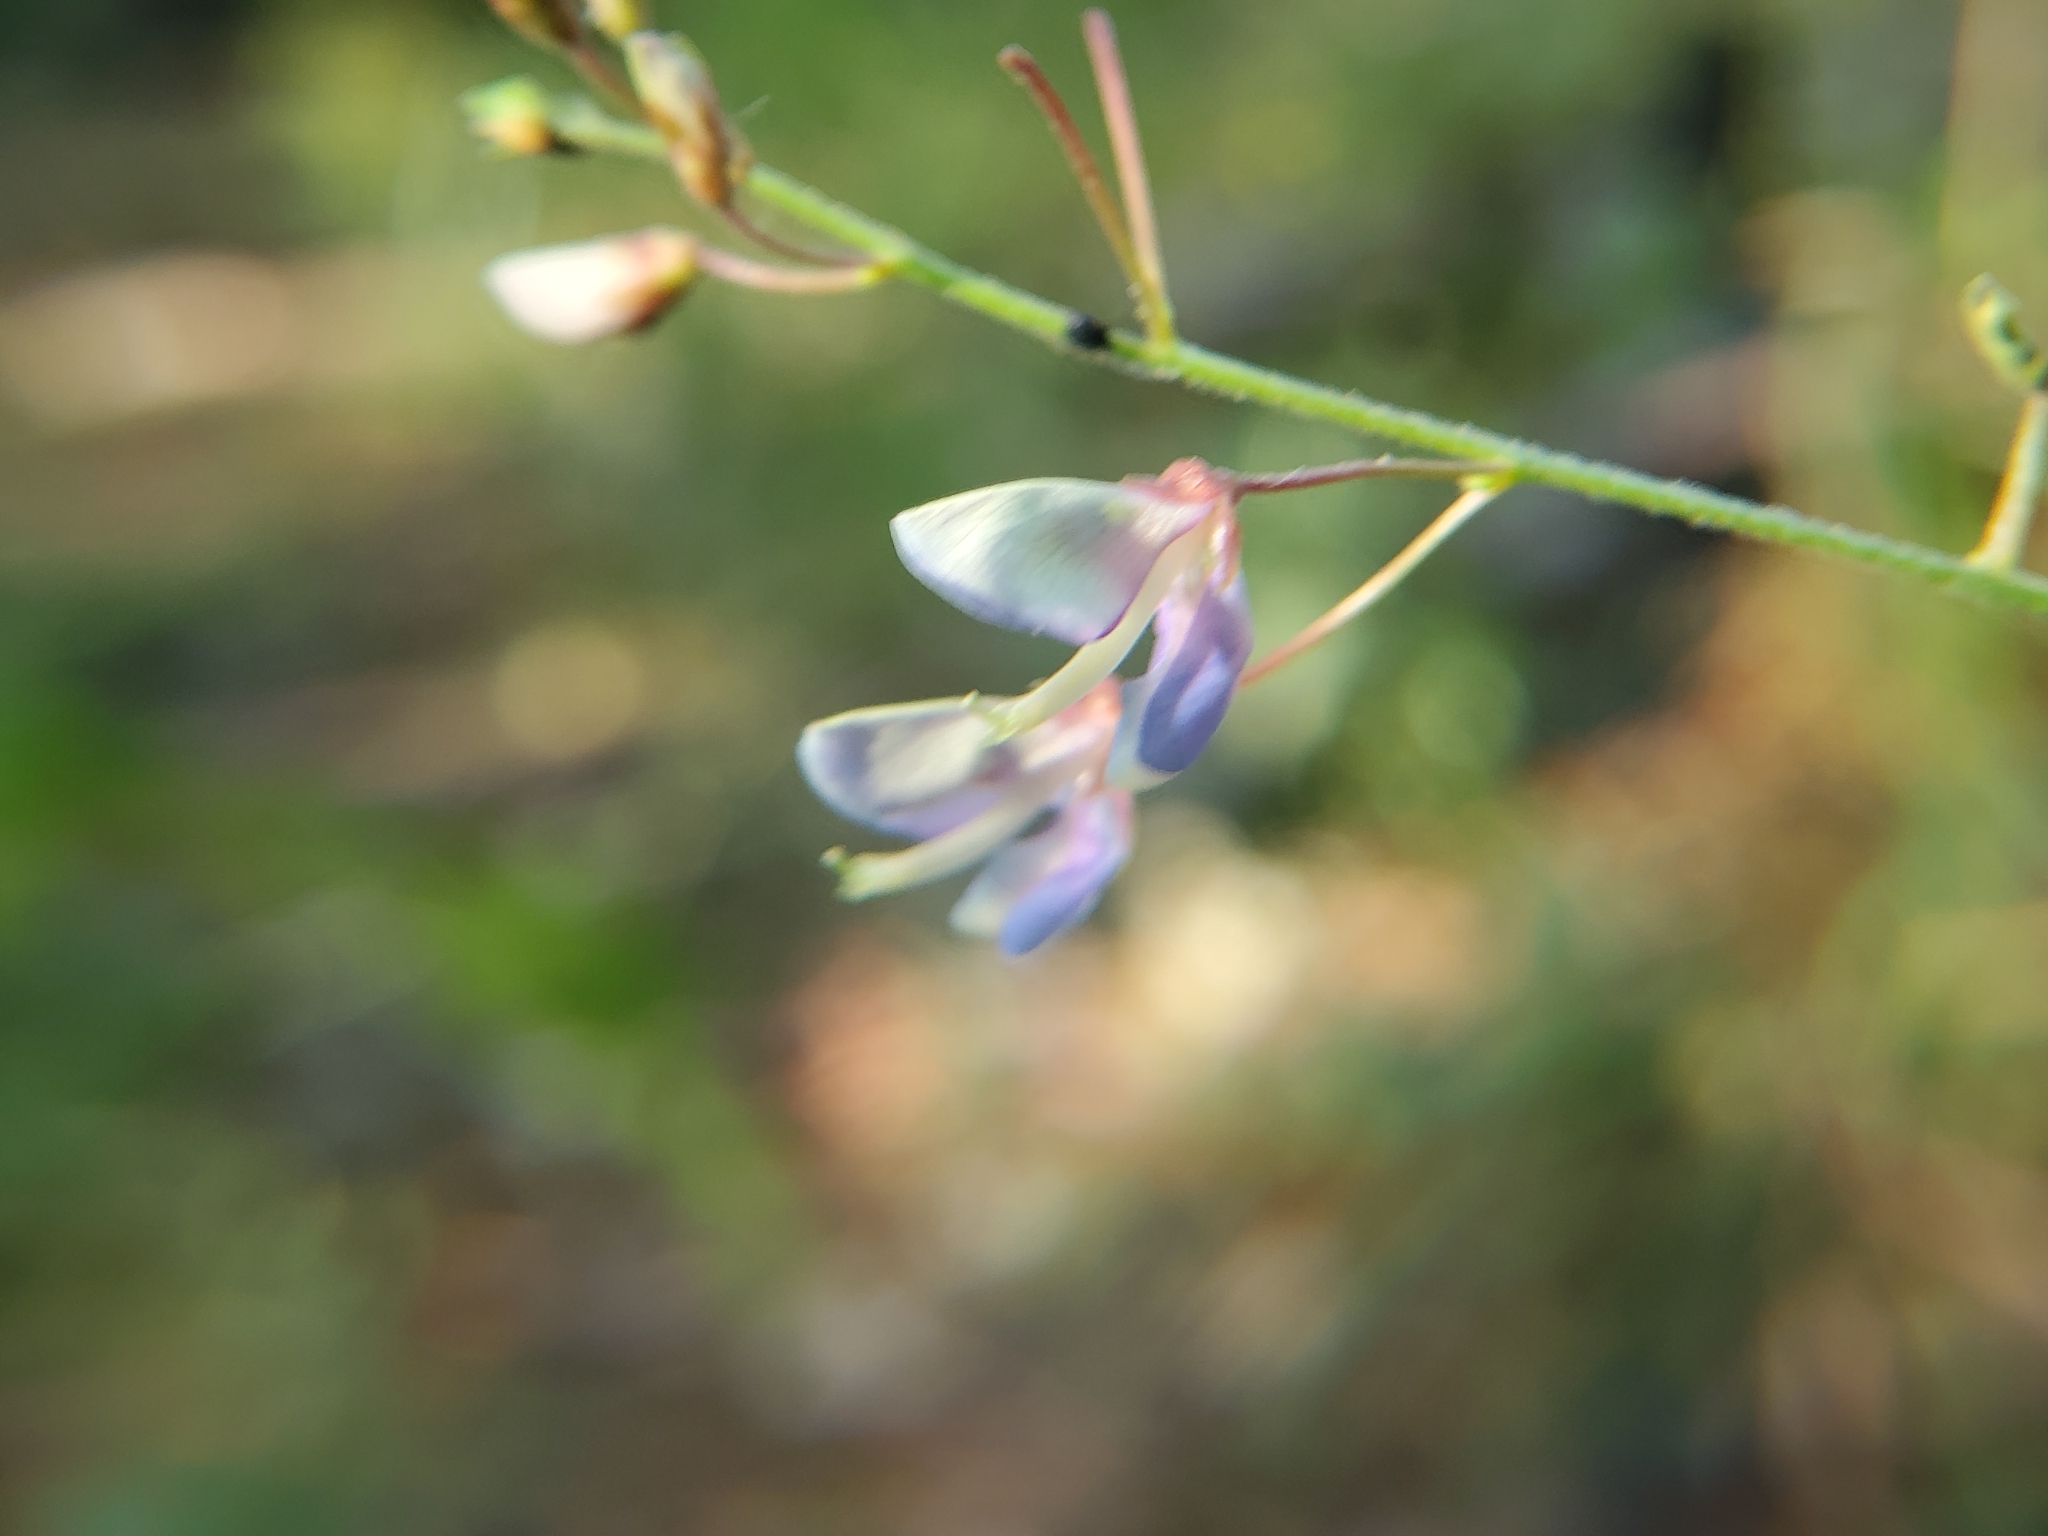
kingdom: Plantae
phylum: Tracheophyta
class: Magnoliopsida
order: Fabales
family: Fabaceae
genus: Desmodium
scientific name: Desmodium laevigatum
